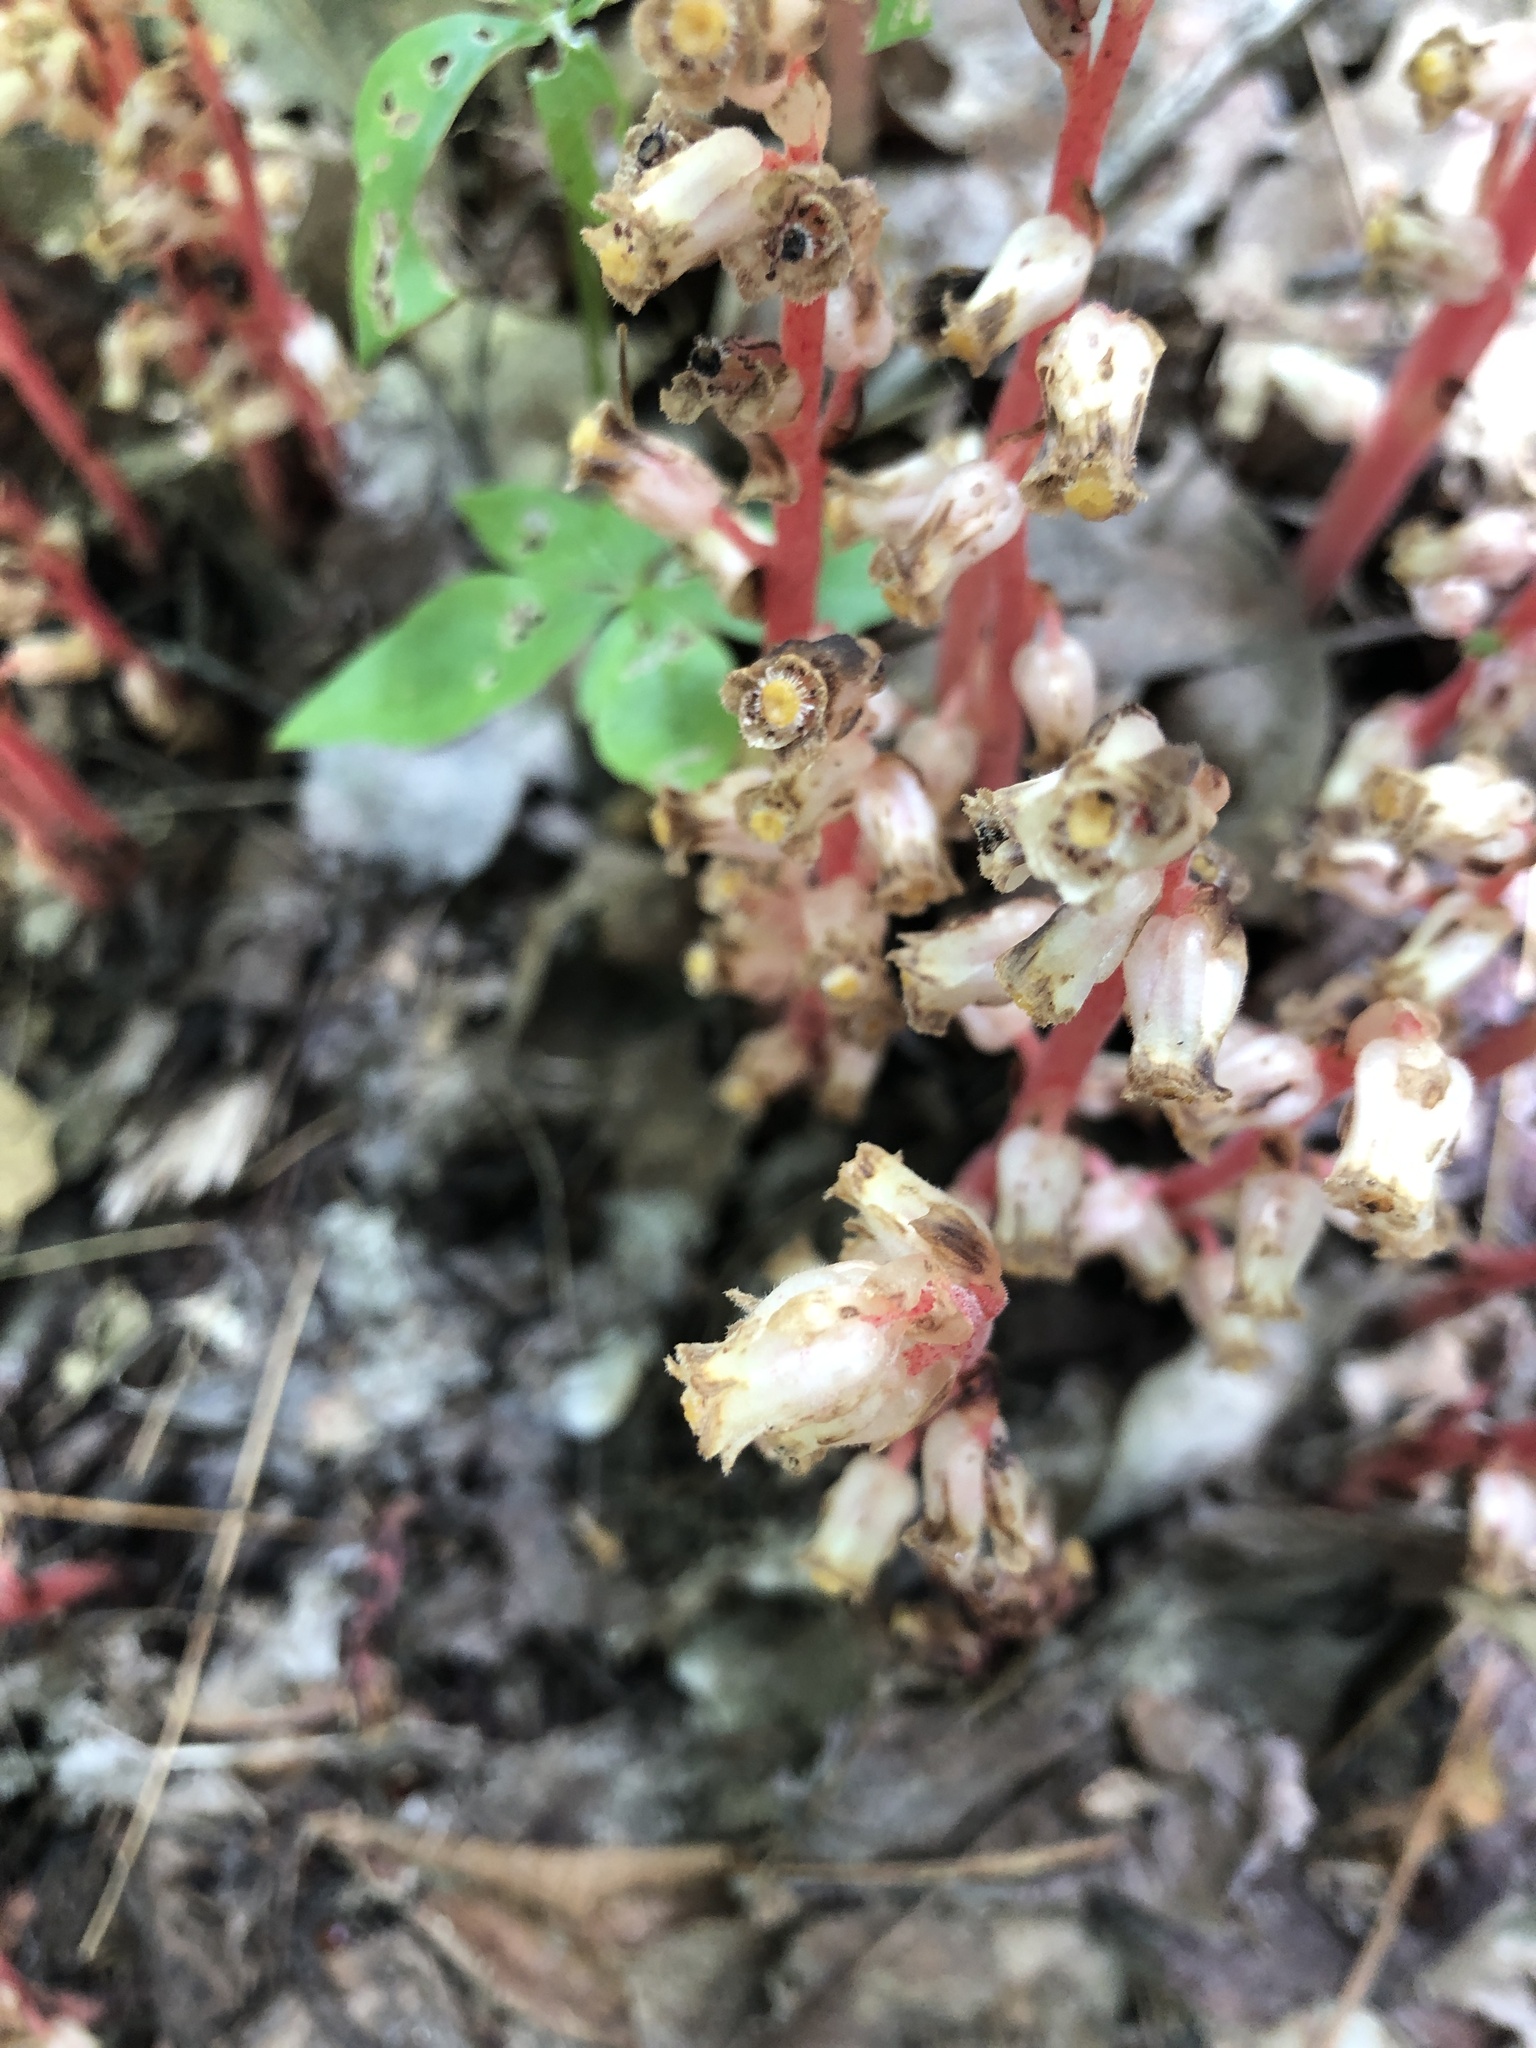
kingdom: Plantae
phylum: Tracheophyta
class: Magnoliopsida
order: Ericales
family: Ericaceae
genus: Hypopitys
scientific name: Hypopitys monotropa
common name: Yellow bird's-nest
